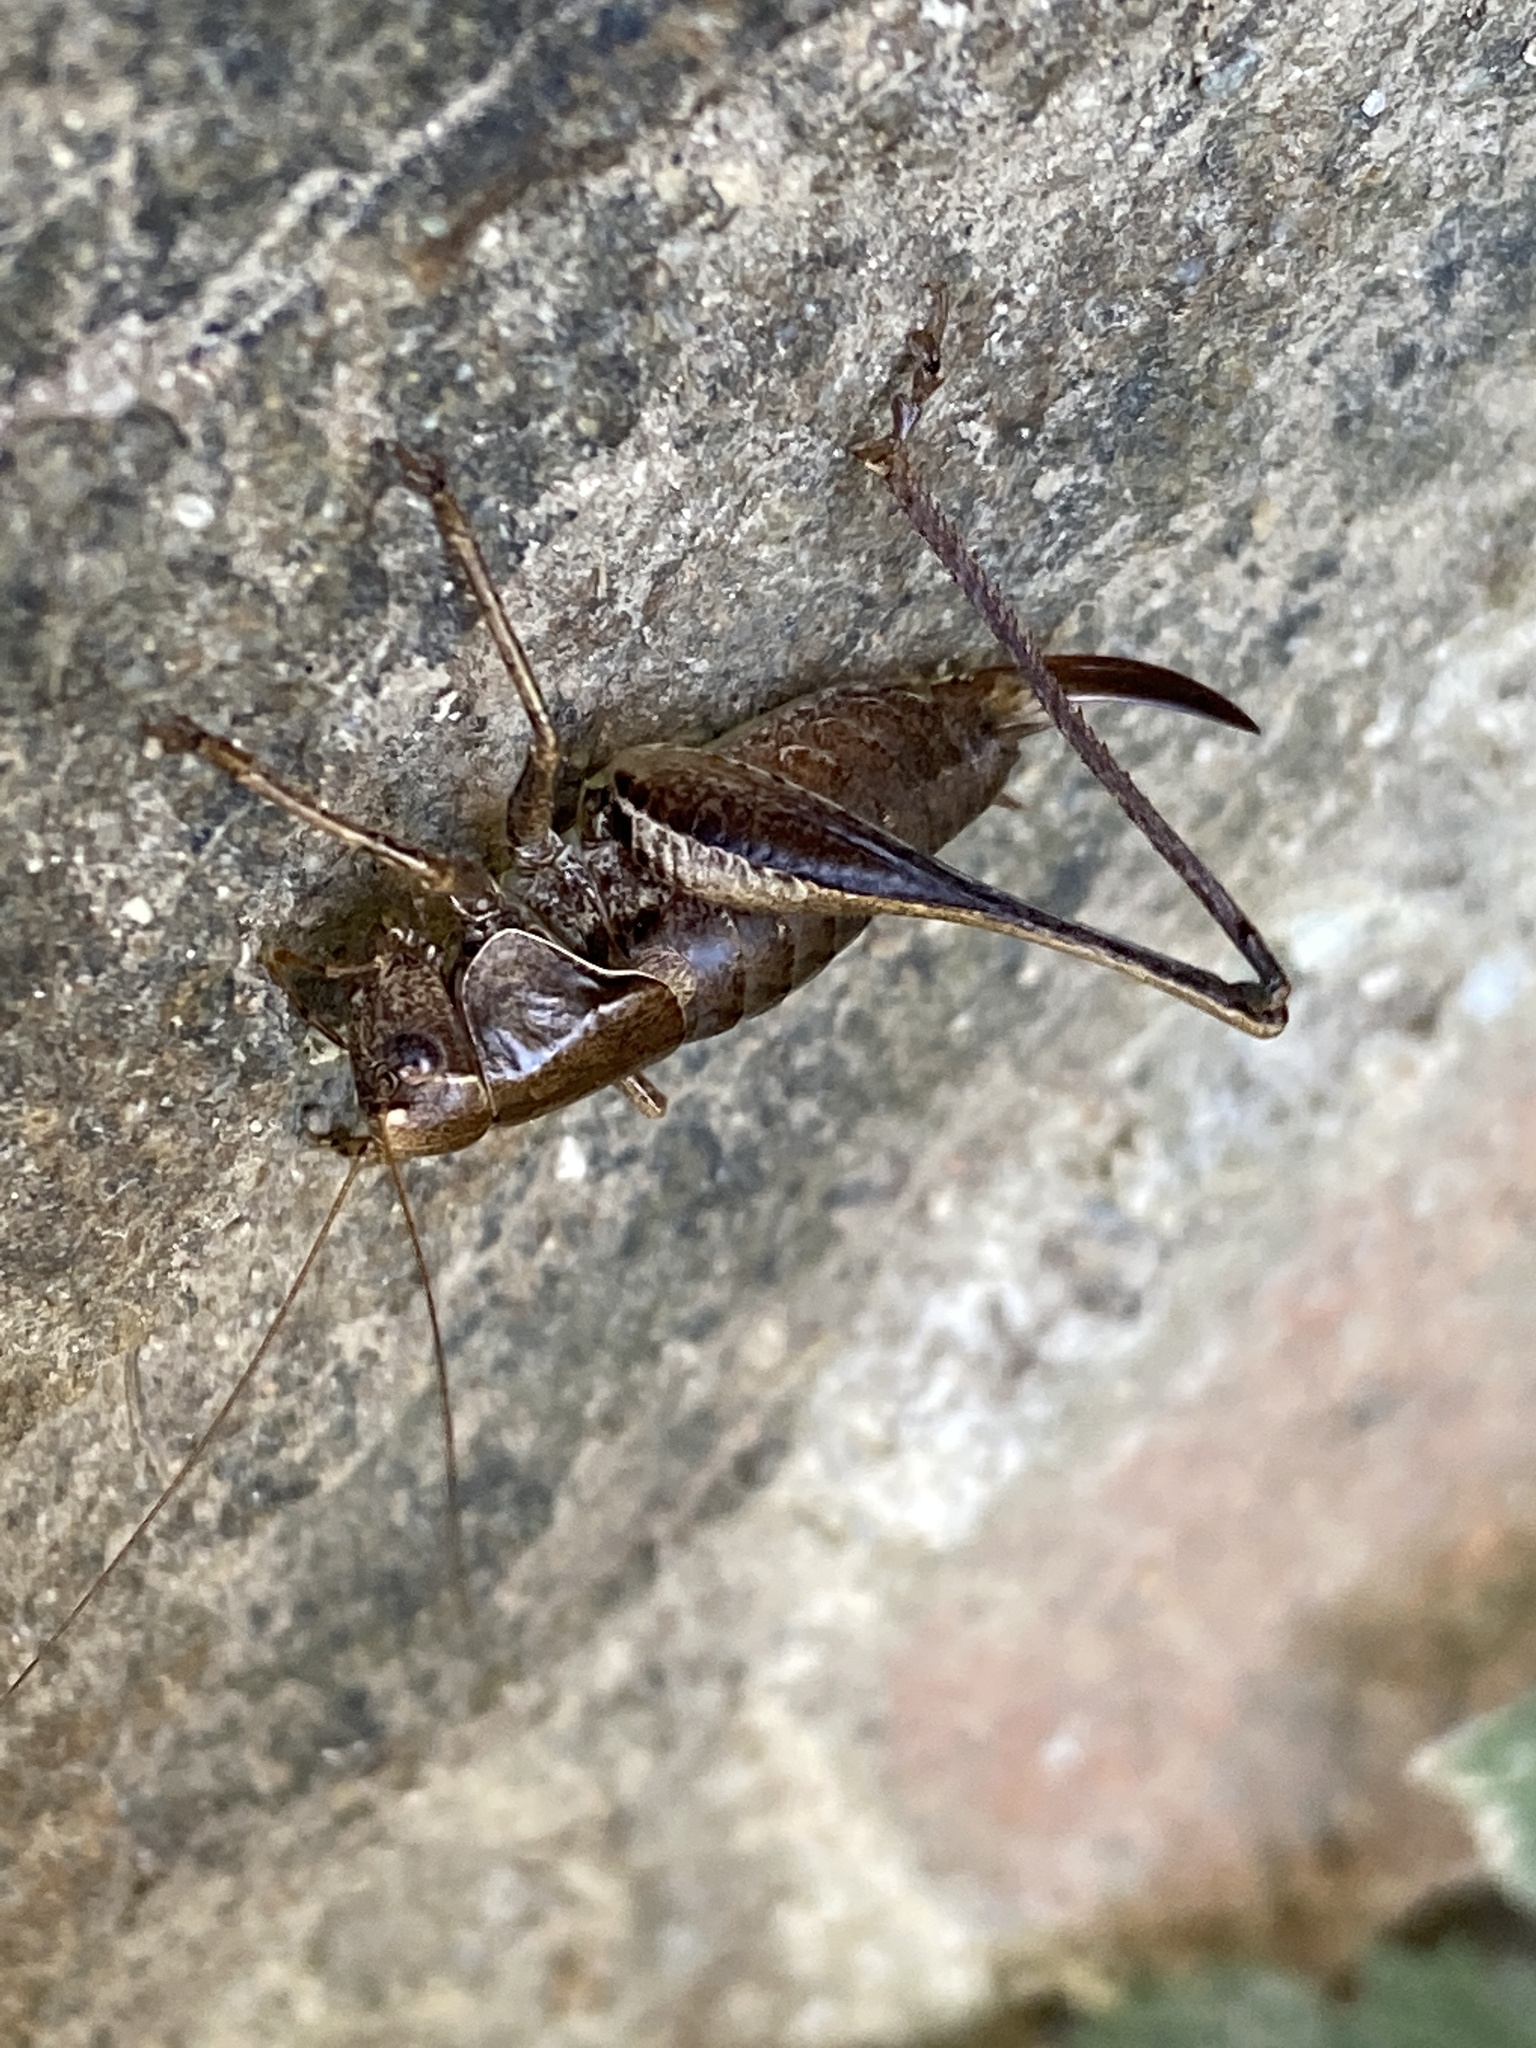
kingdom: Animalia
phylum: Arthropoda
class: Insecta
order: Orthoptera
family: Tettigoniidae
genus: Pholidoptera
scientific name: Pholidoptera griseoaptera
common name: Dark bush-cricket
